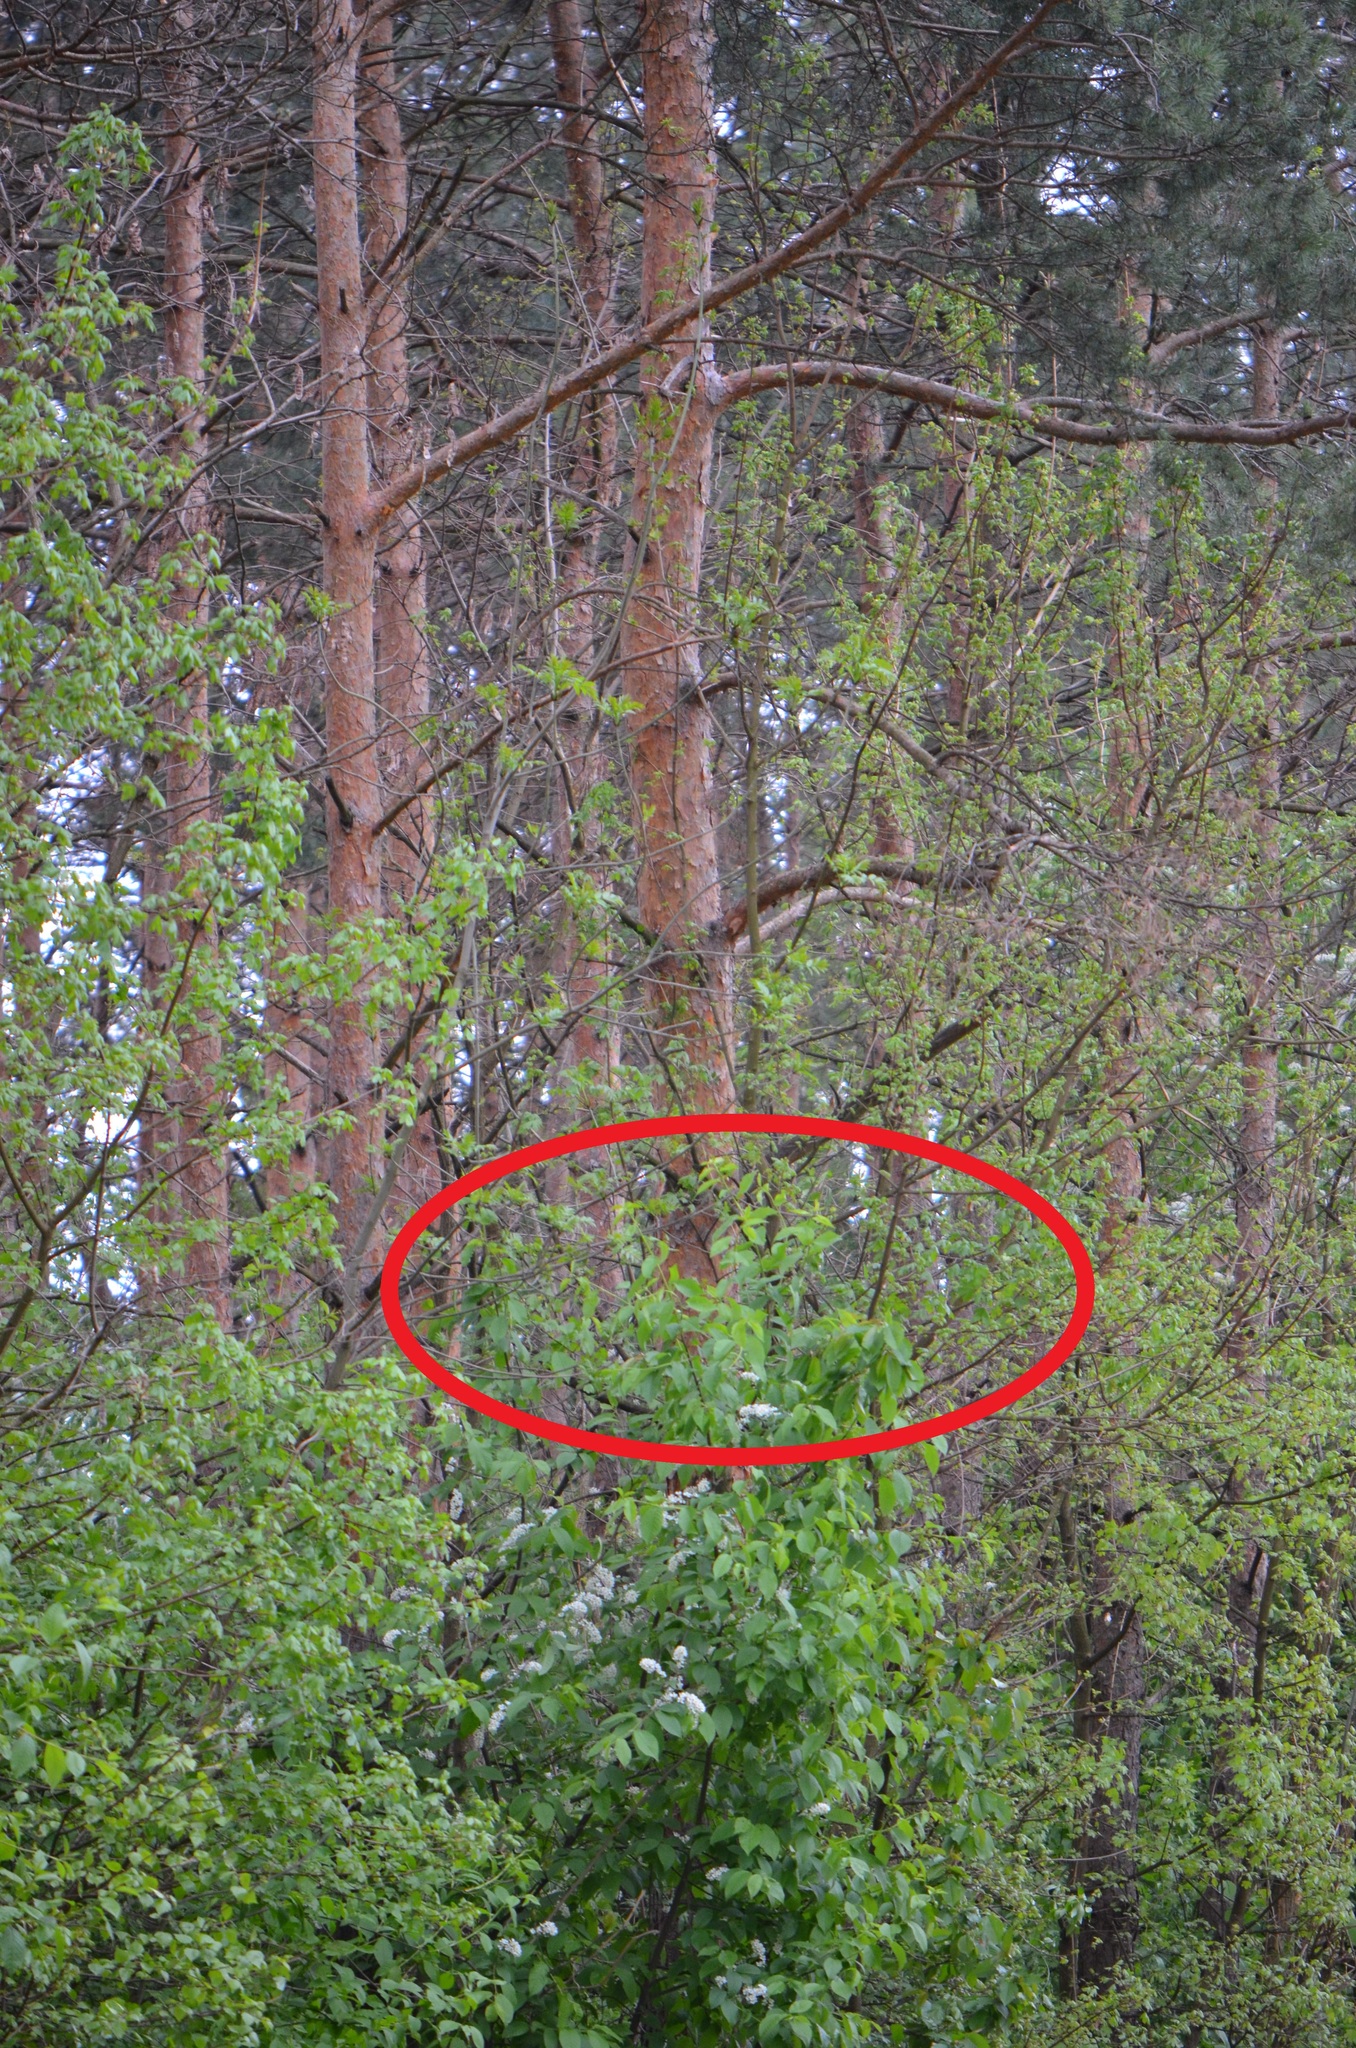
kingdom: Plantae
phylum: Tracheophyta
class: Magnoliopsida
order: Rosales
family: Rosaceae
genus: Prunus
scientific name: Prunus padus
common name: Bird cherry
